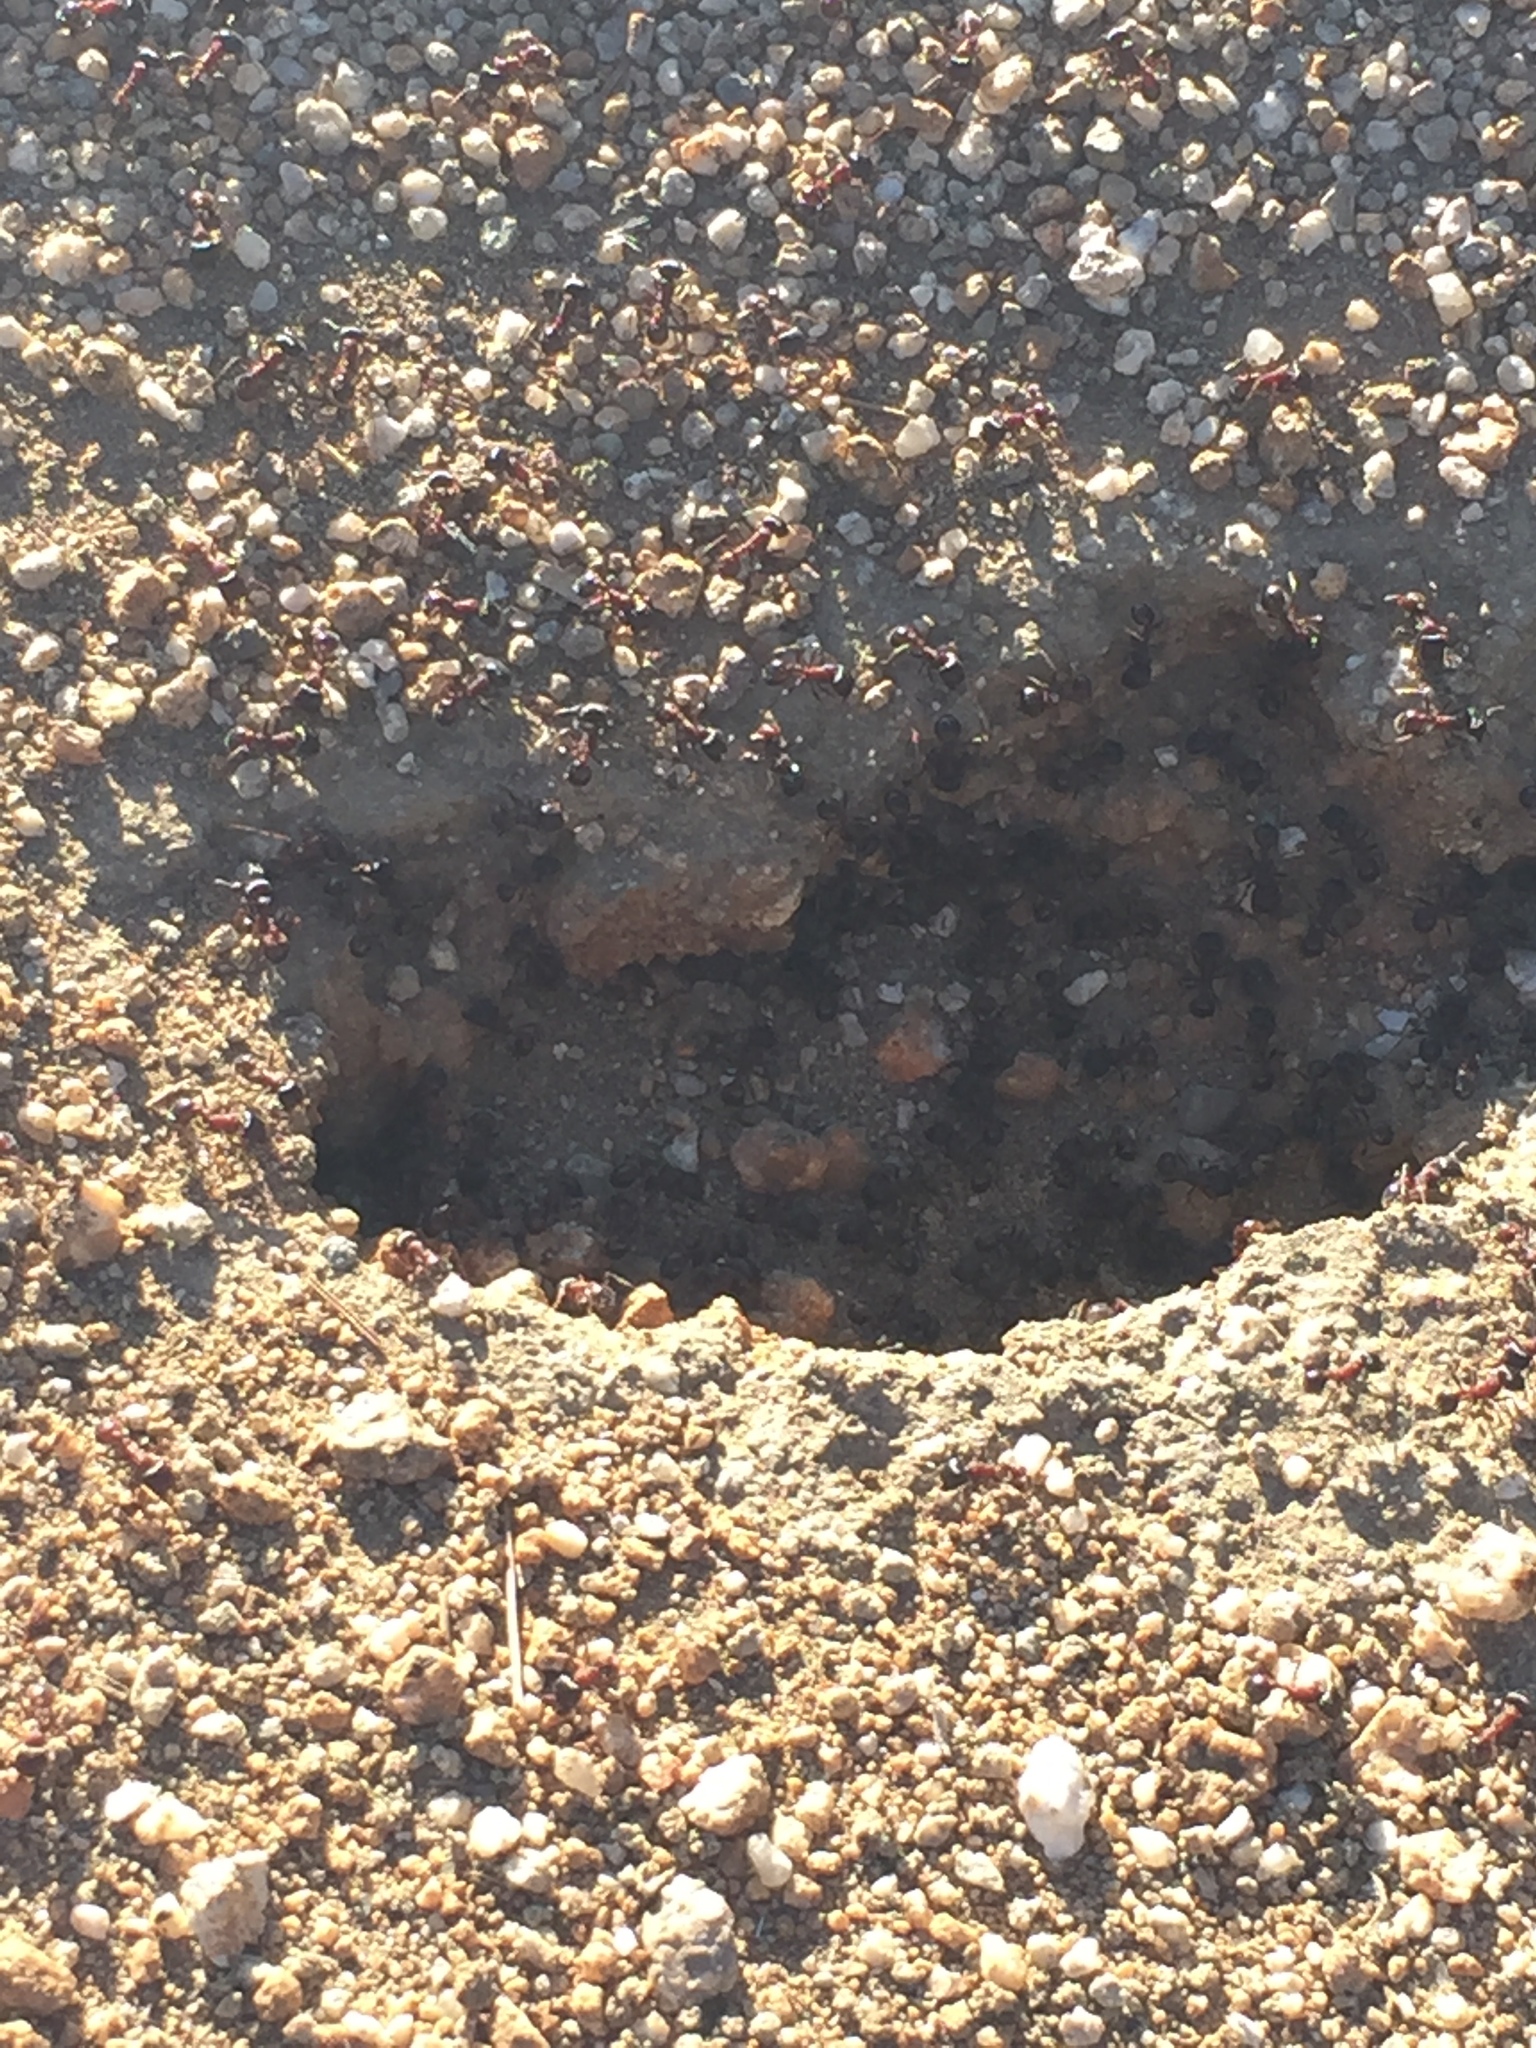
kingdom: Animalia
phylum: Arthropoda
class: Insecta
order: Hymenoptera
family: Formicidae
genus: Pogonomyrmex
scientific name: Pogonomyrmex rugosus
